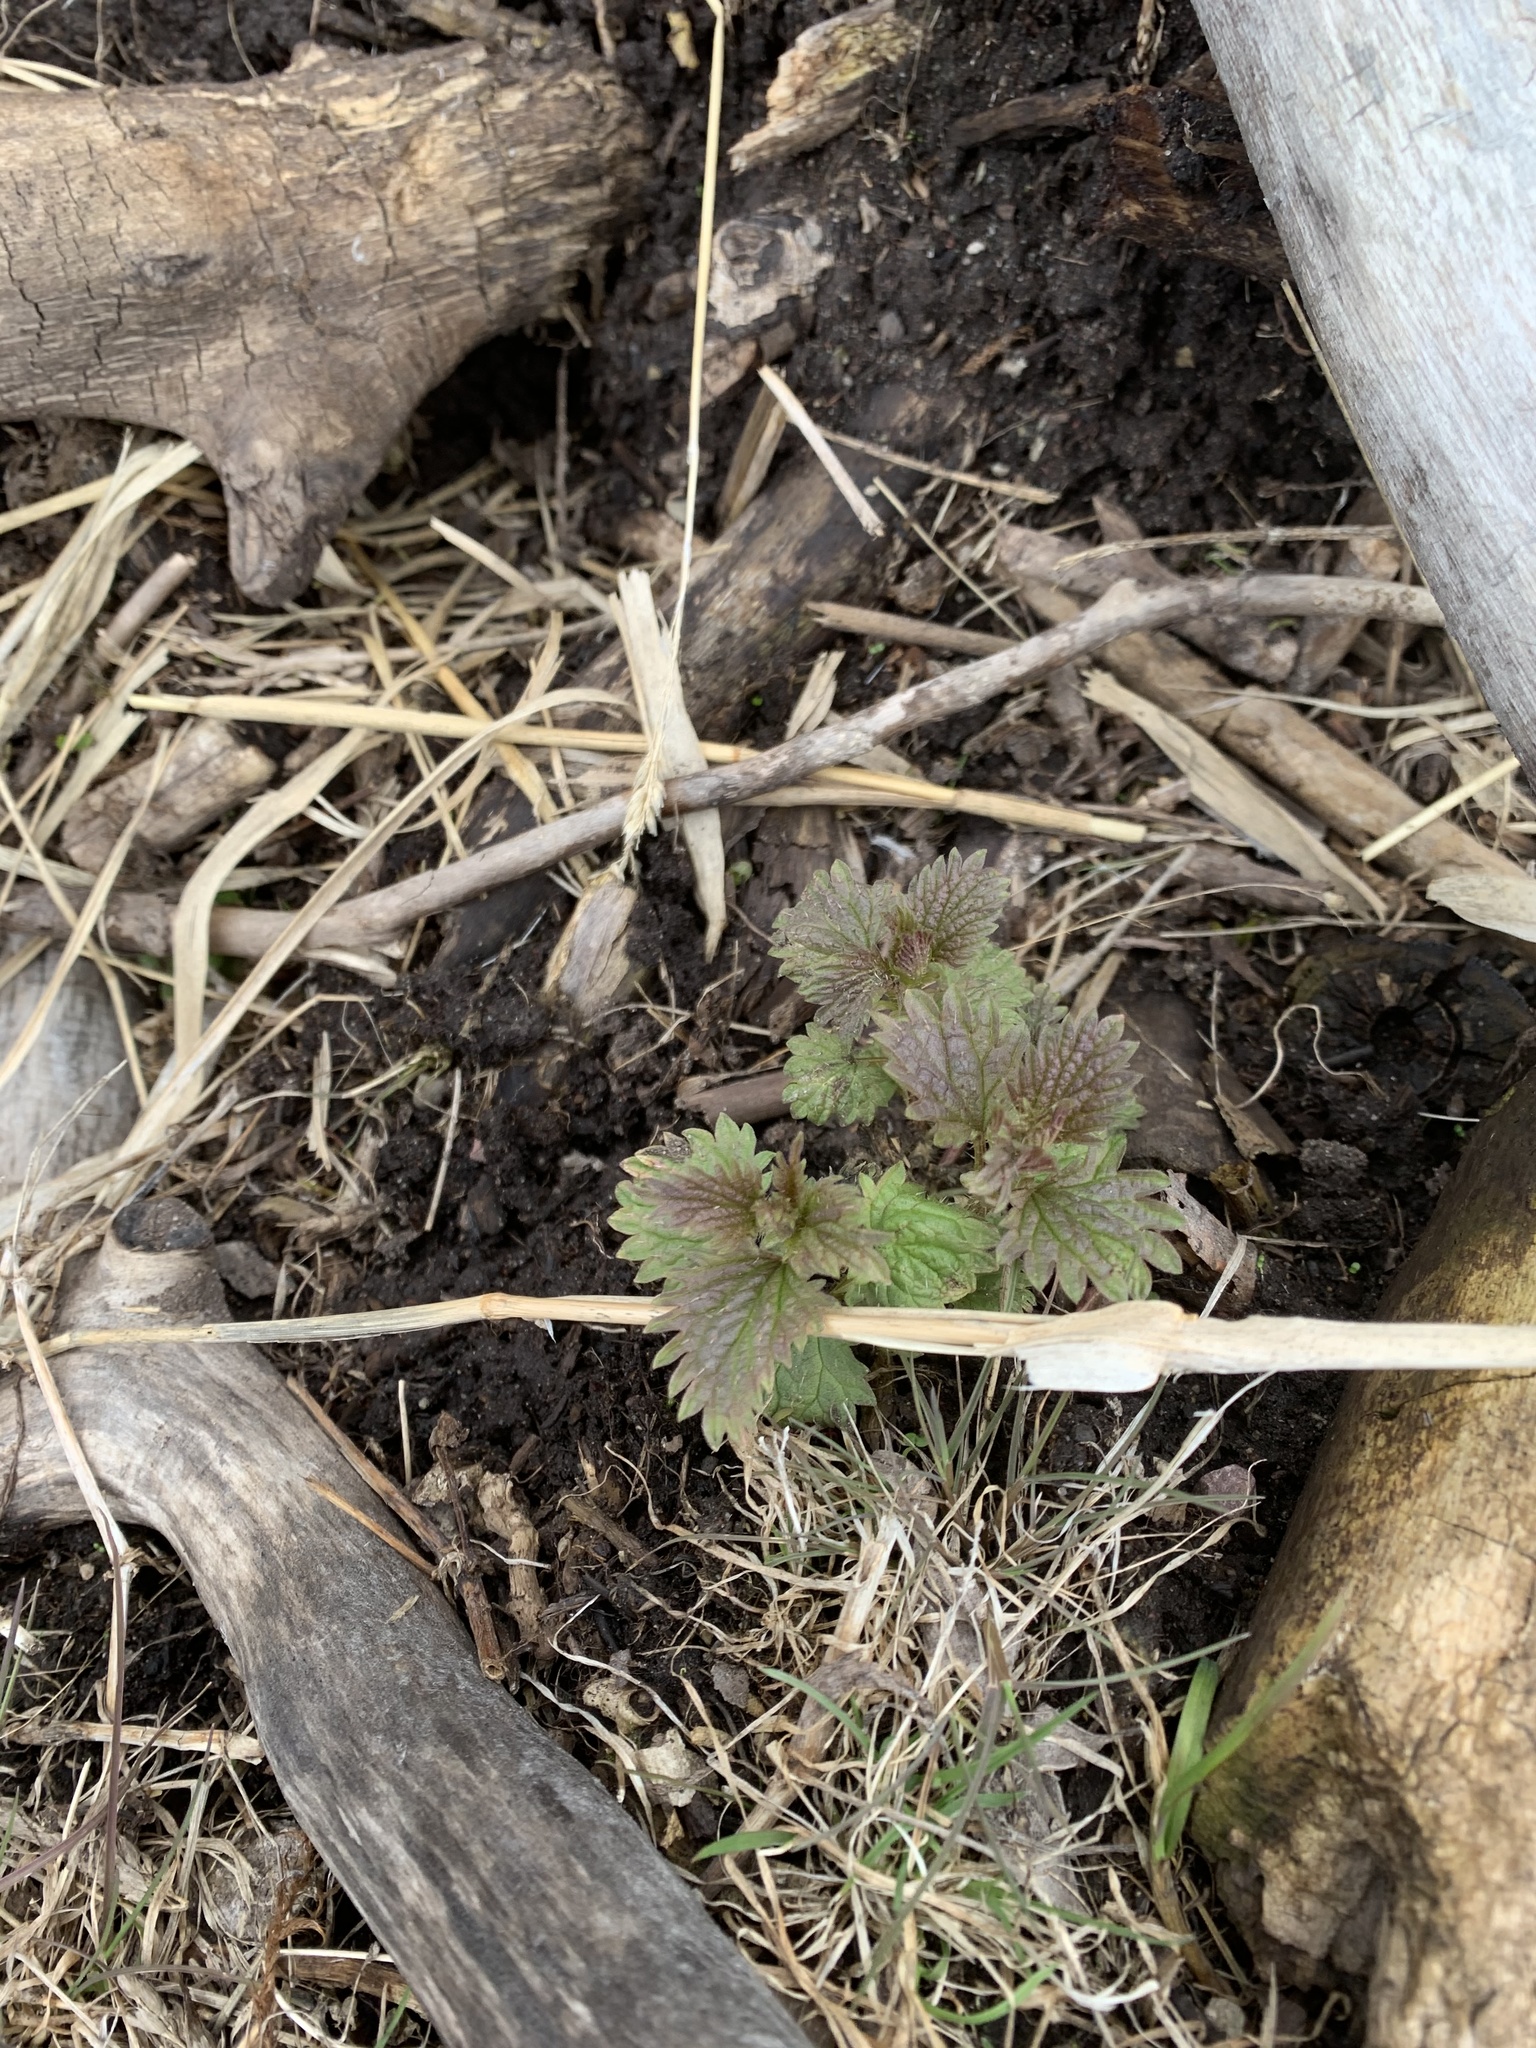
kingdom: Plantae
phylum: Tracheophyta
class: Magnoliopsida
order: Rosales
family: Urticaceae
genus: Urtica
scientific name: Urtica gracilis
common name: Slender stinging nettle
